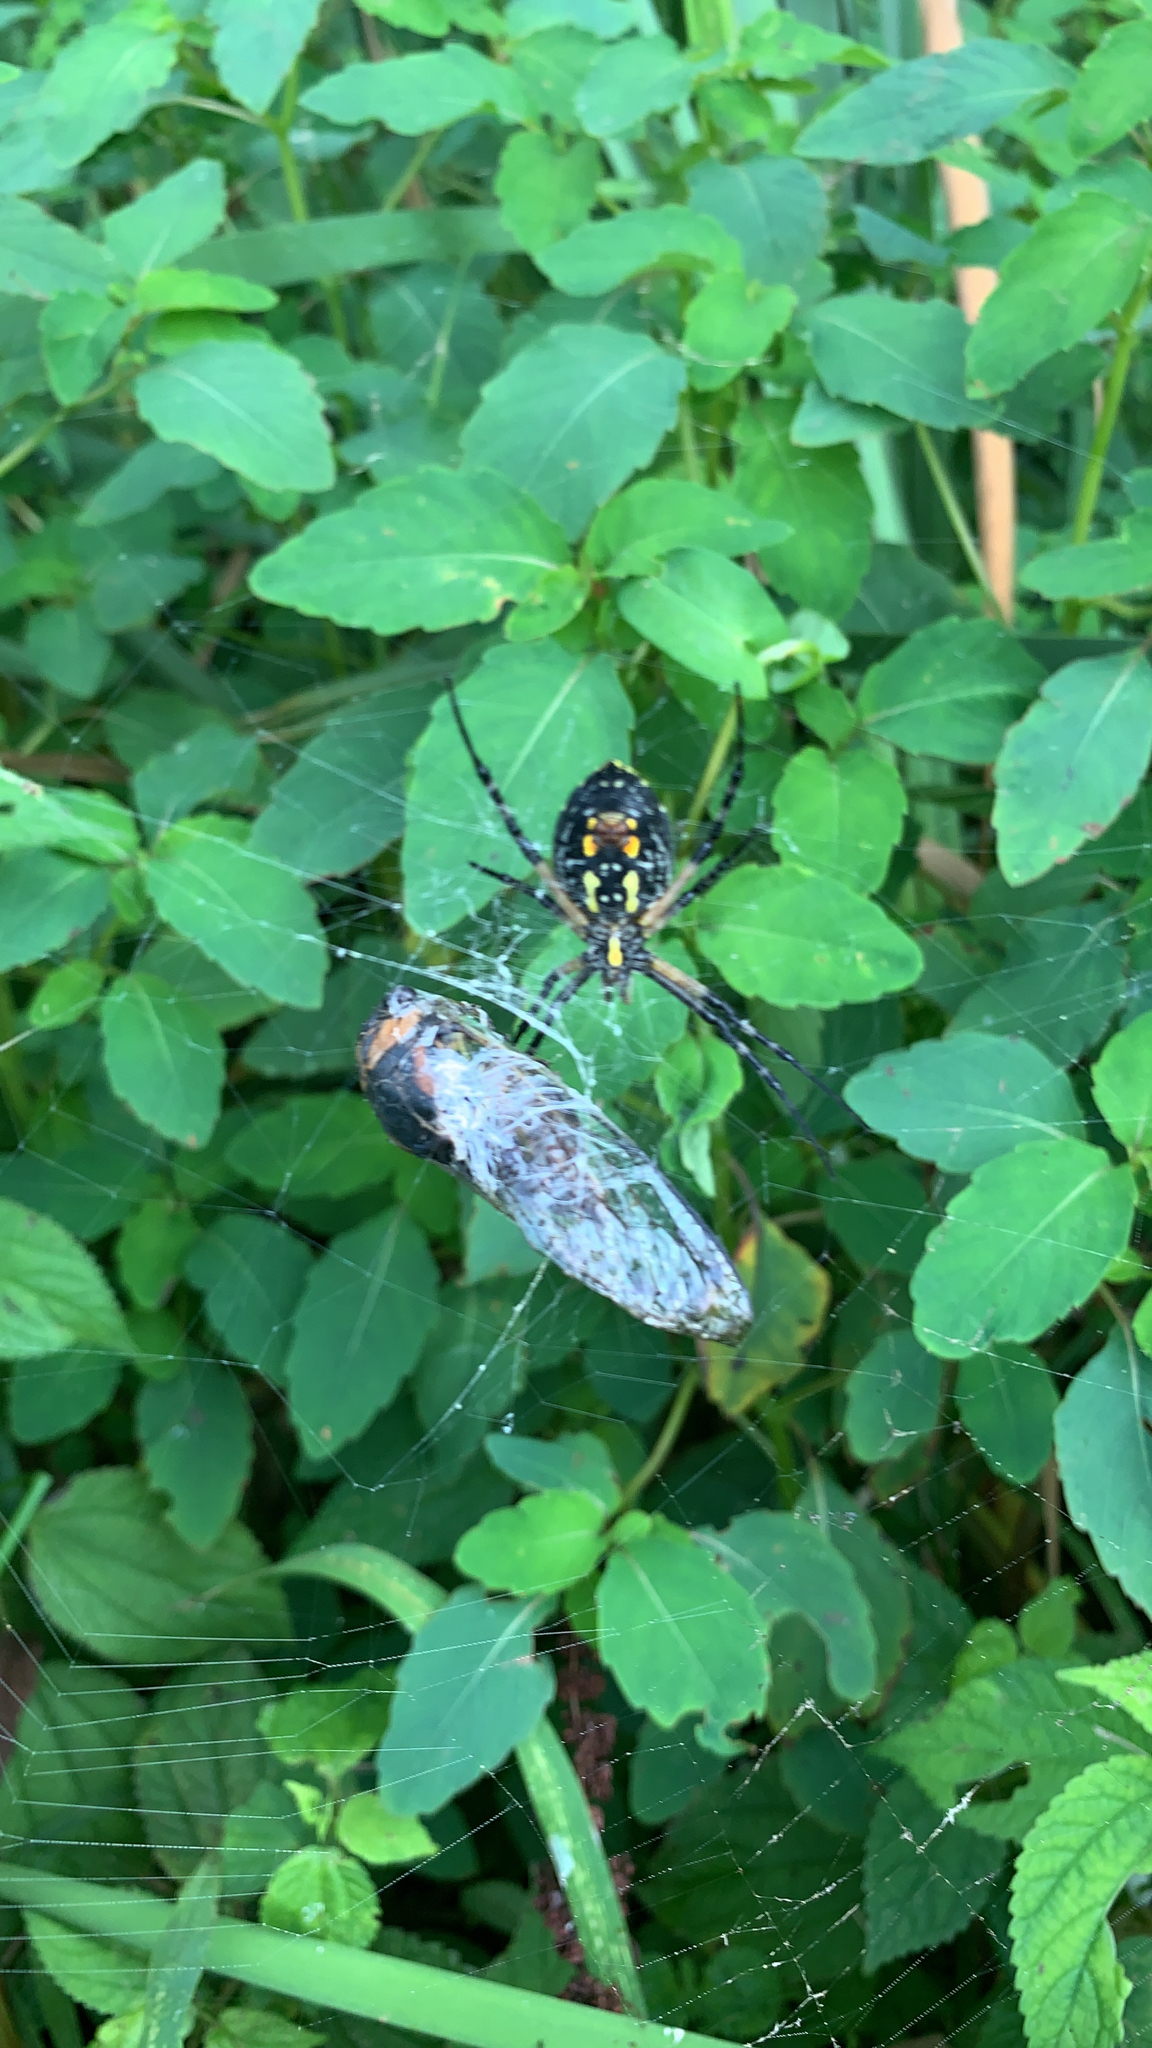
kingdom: Animalia
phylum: Arthropoda
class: Arachnida
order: Araneae
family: Araneidae
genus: Argiope
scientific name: Argiope aurantia
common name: Orb weavers
